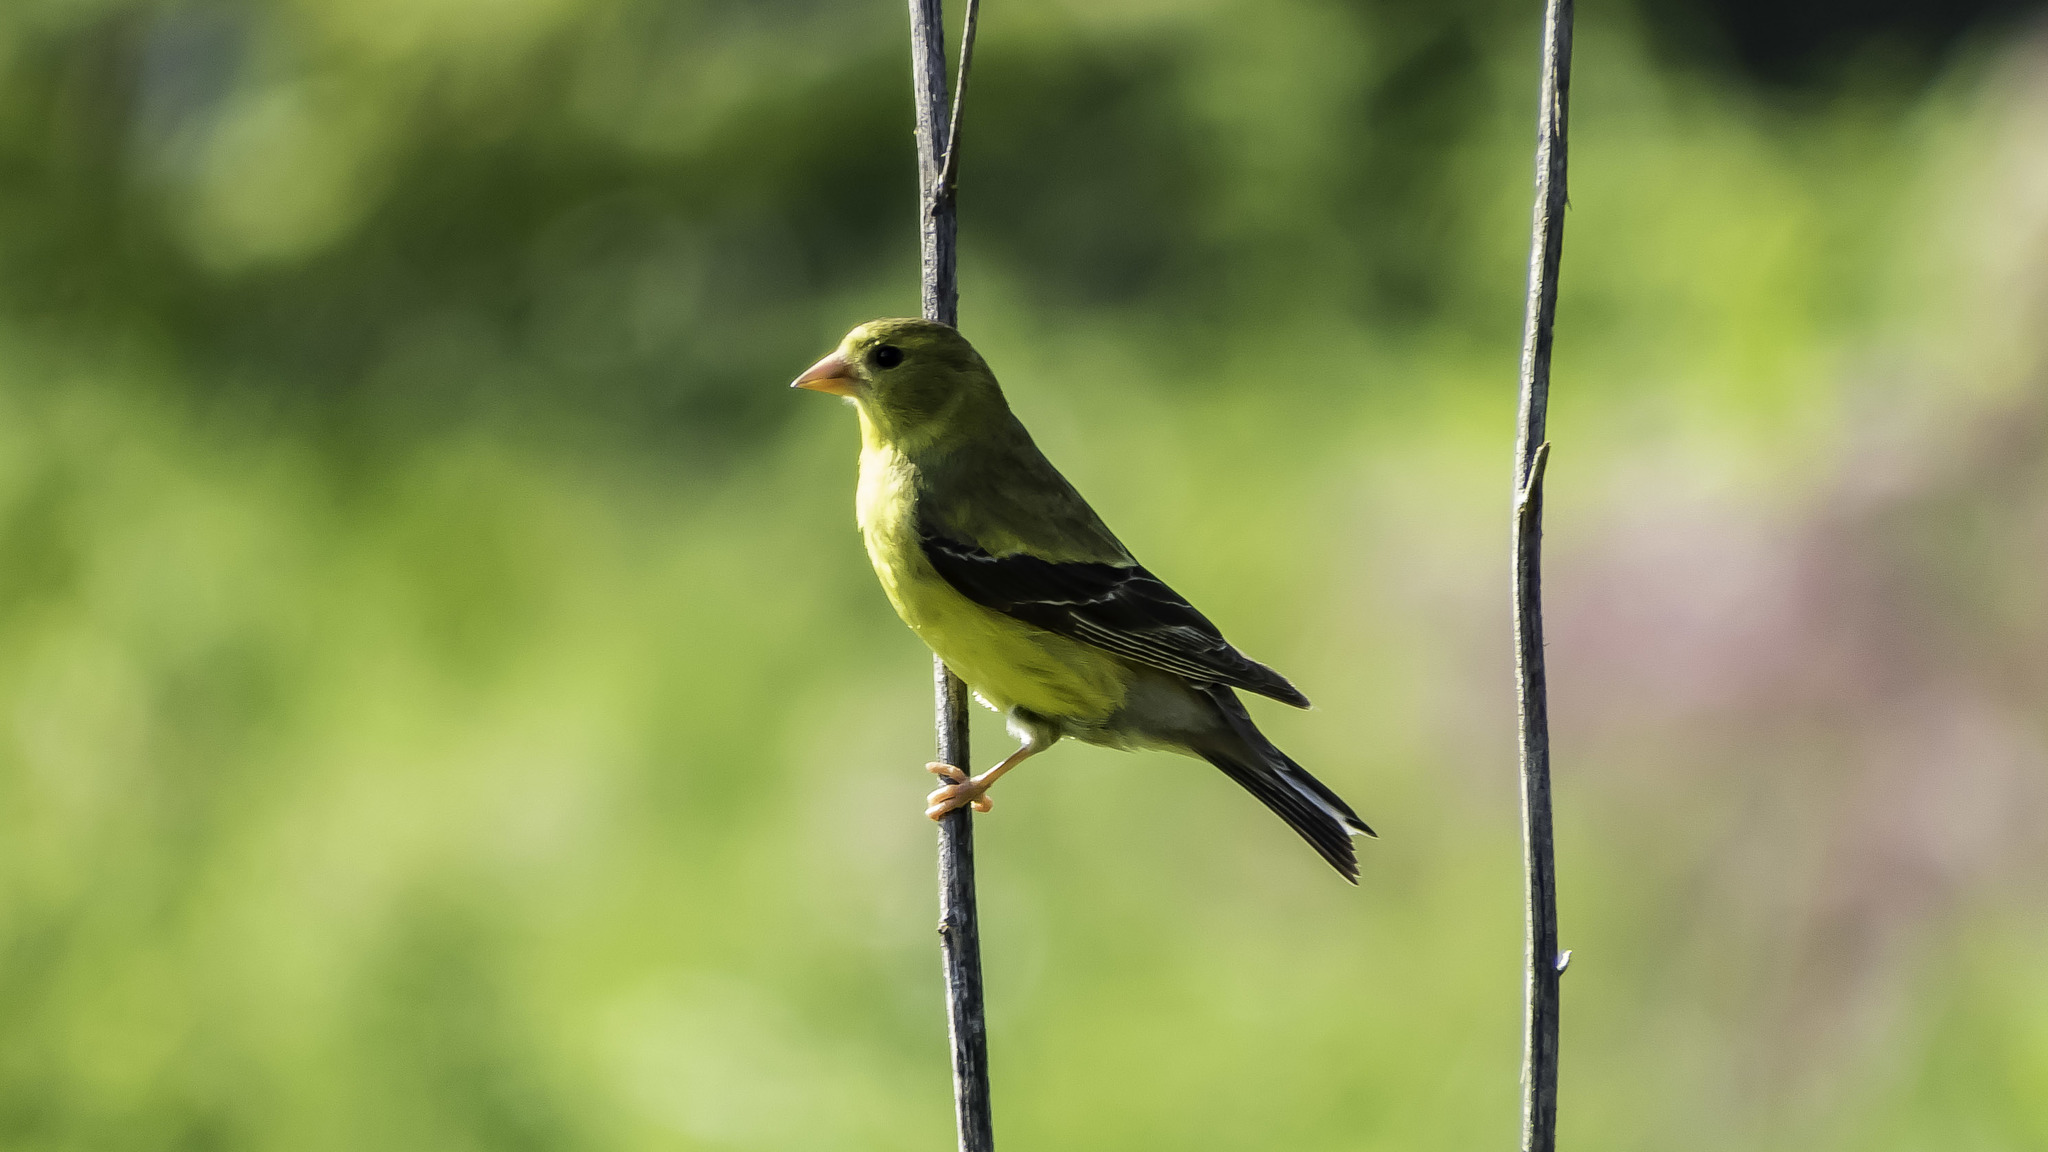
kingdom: Animalia
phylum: Chordata
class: Aves
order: Passeriformes
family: Fringillidae
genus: Spinus
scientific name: Spinus tristis
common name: American goldfinch
